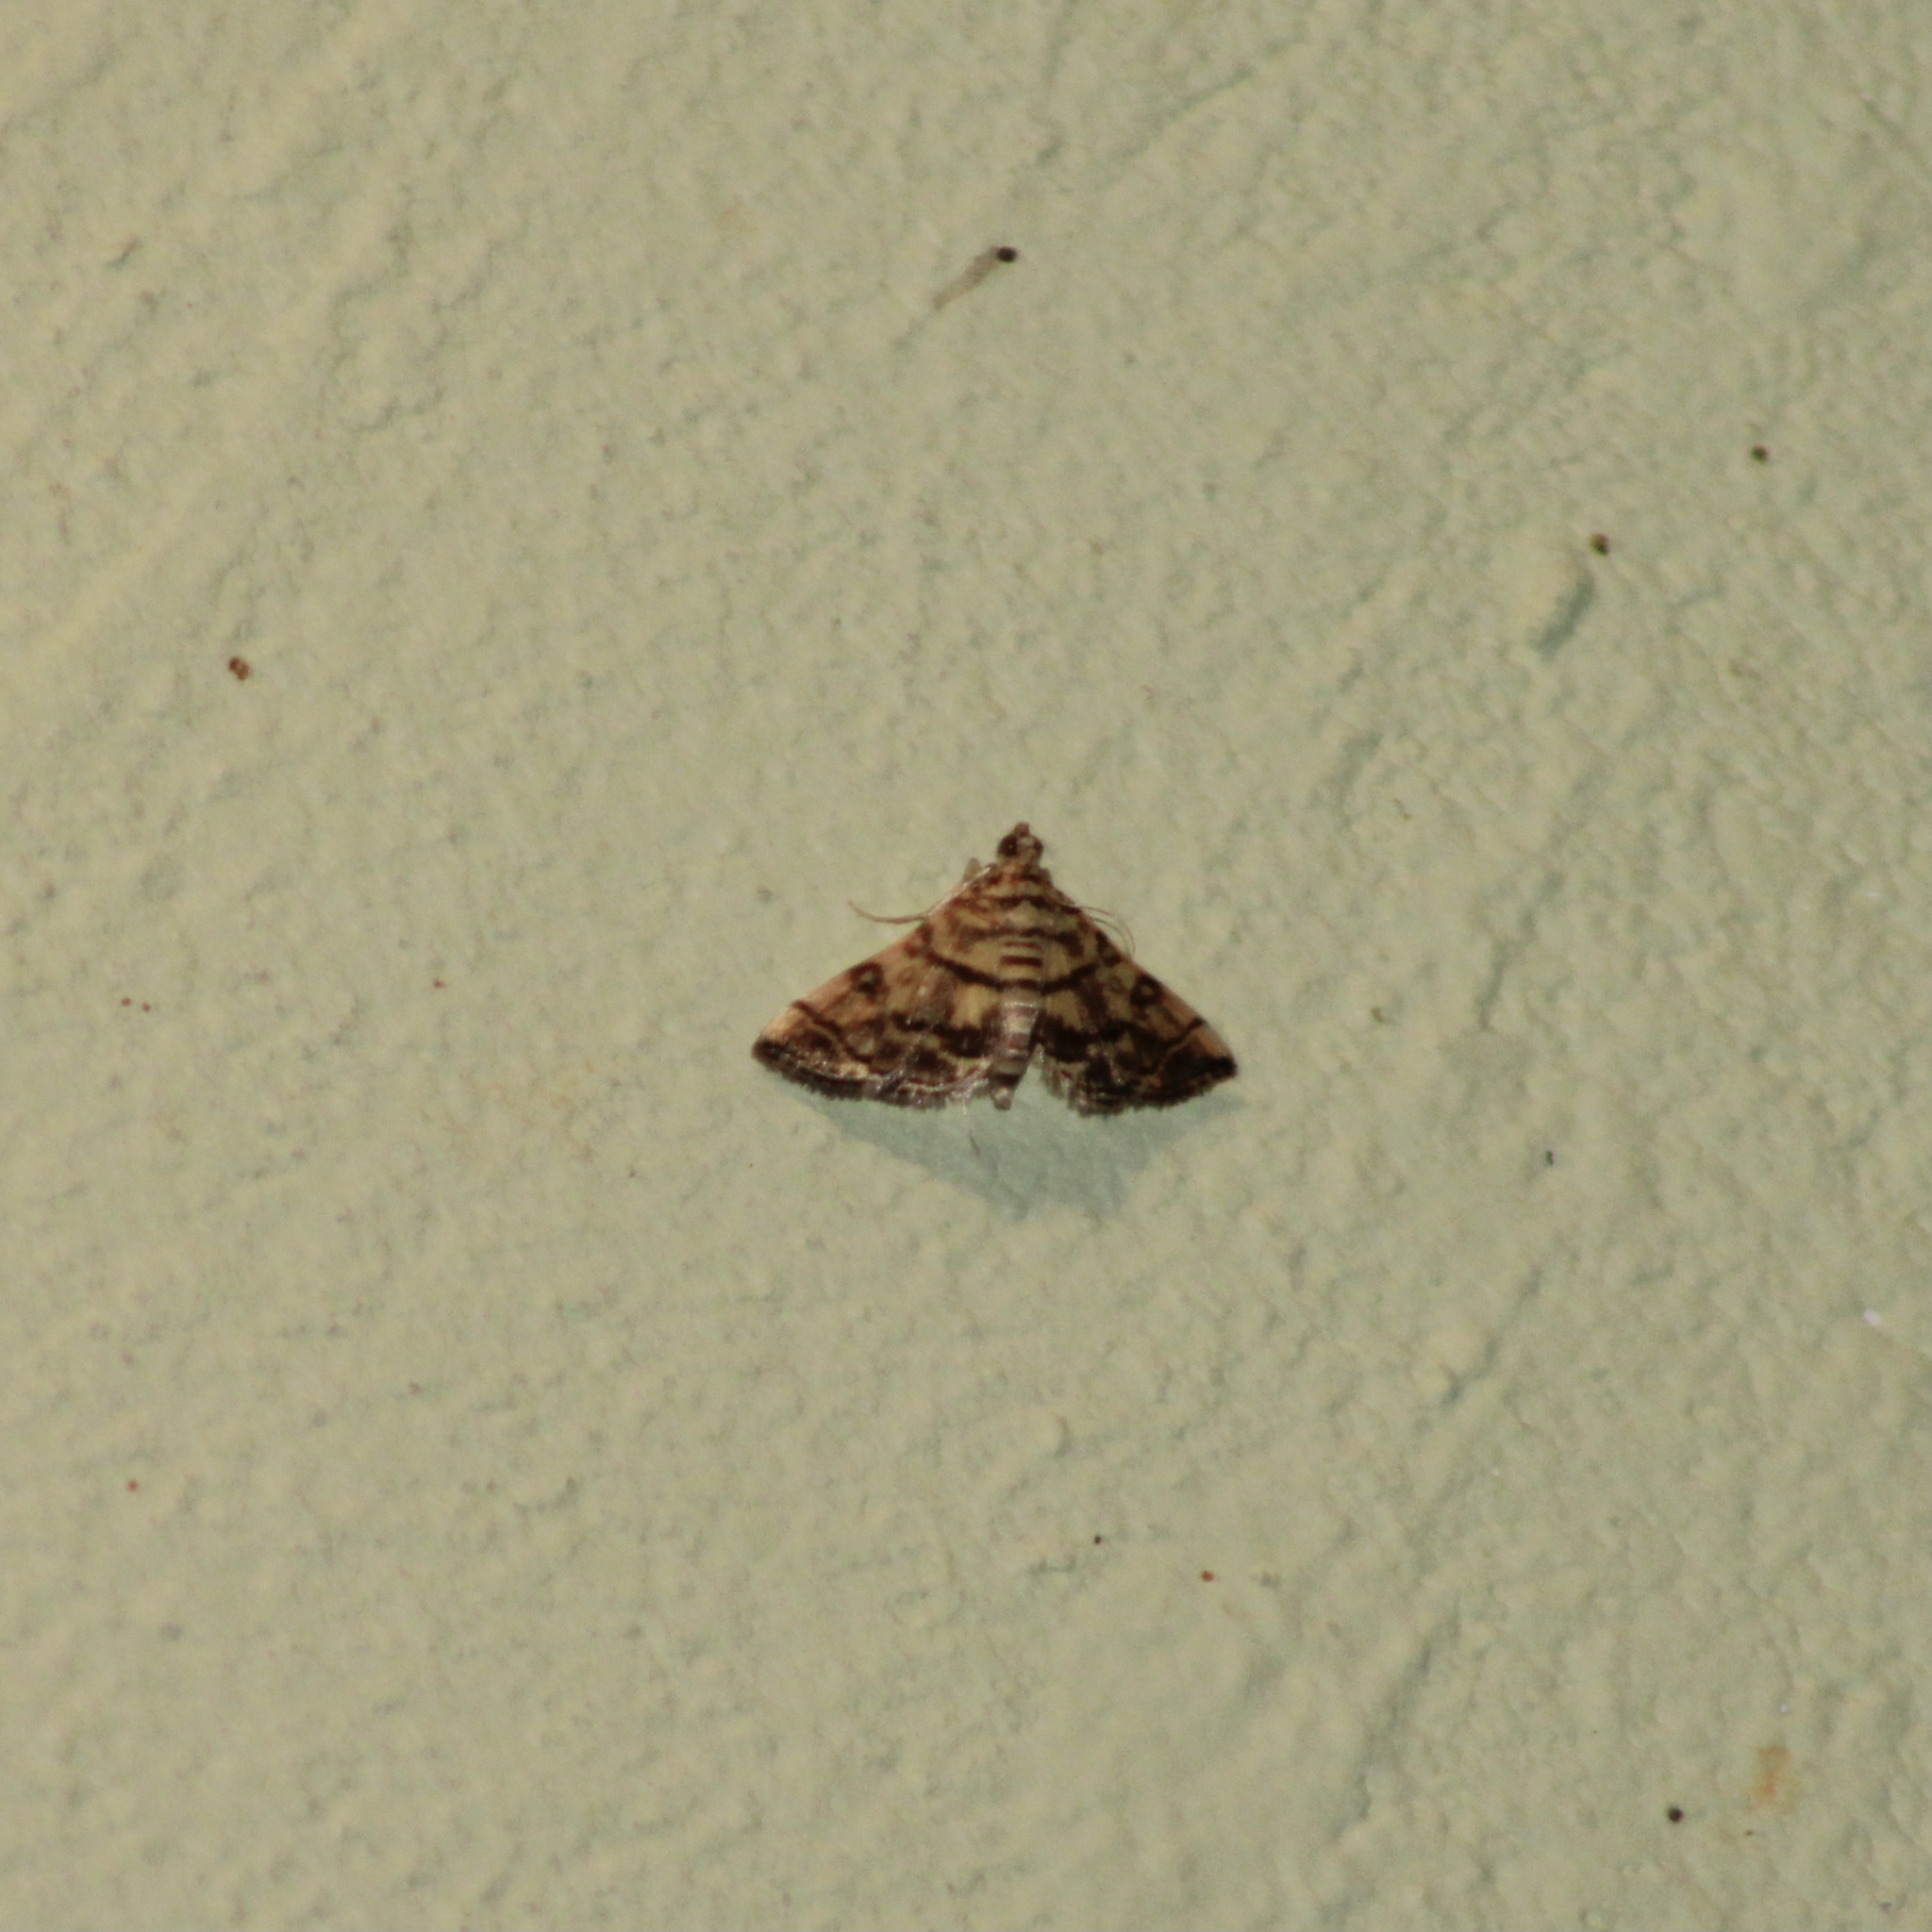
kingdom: Animalia
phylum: Arthropoda
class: Insecta
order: Lepidoptera
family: Crambidae
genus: Apogeshna
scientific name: Apogeshna stenialis
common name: Checkered apogeshna moth
